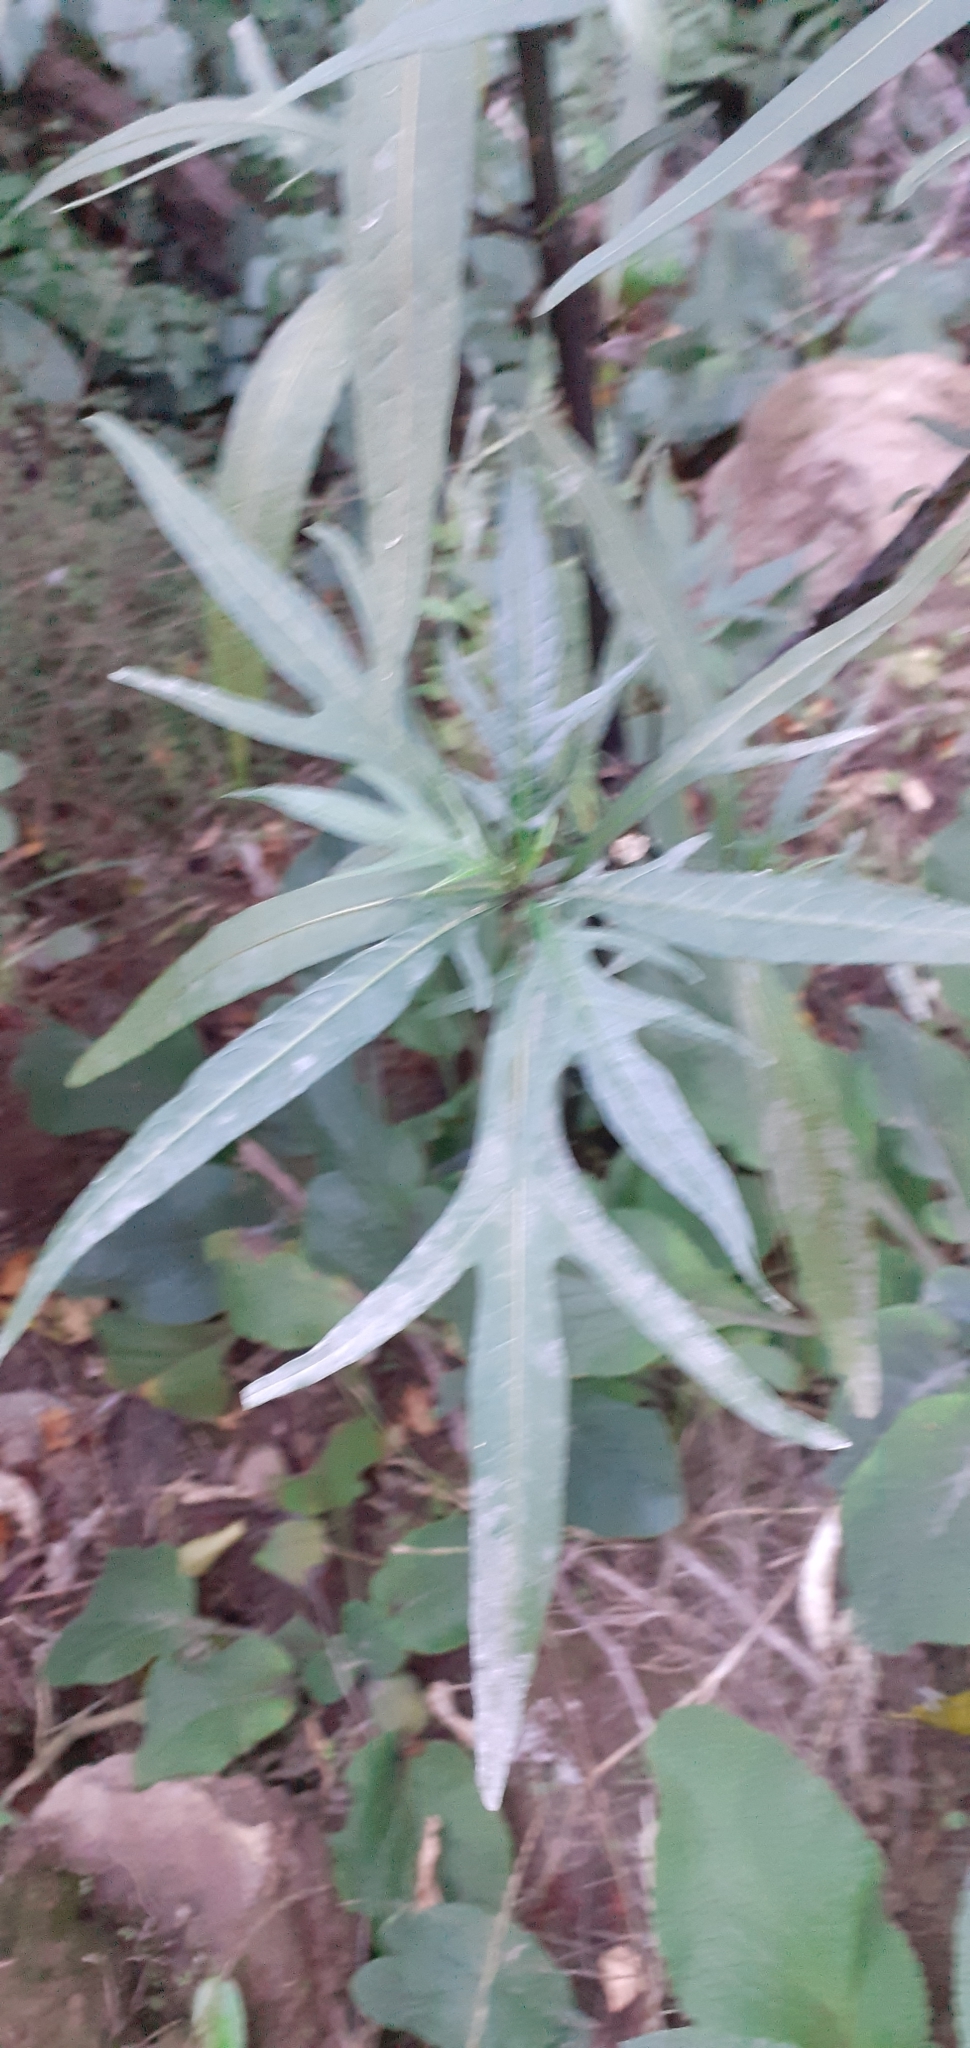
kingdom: Plantae
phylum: Tracheophyta
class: Magnoliopsida
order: Solanales
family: Solanaceae
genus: Solanum
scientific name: Solanum
